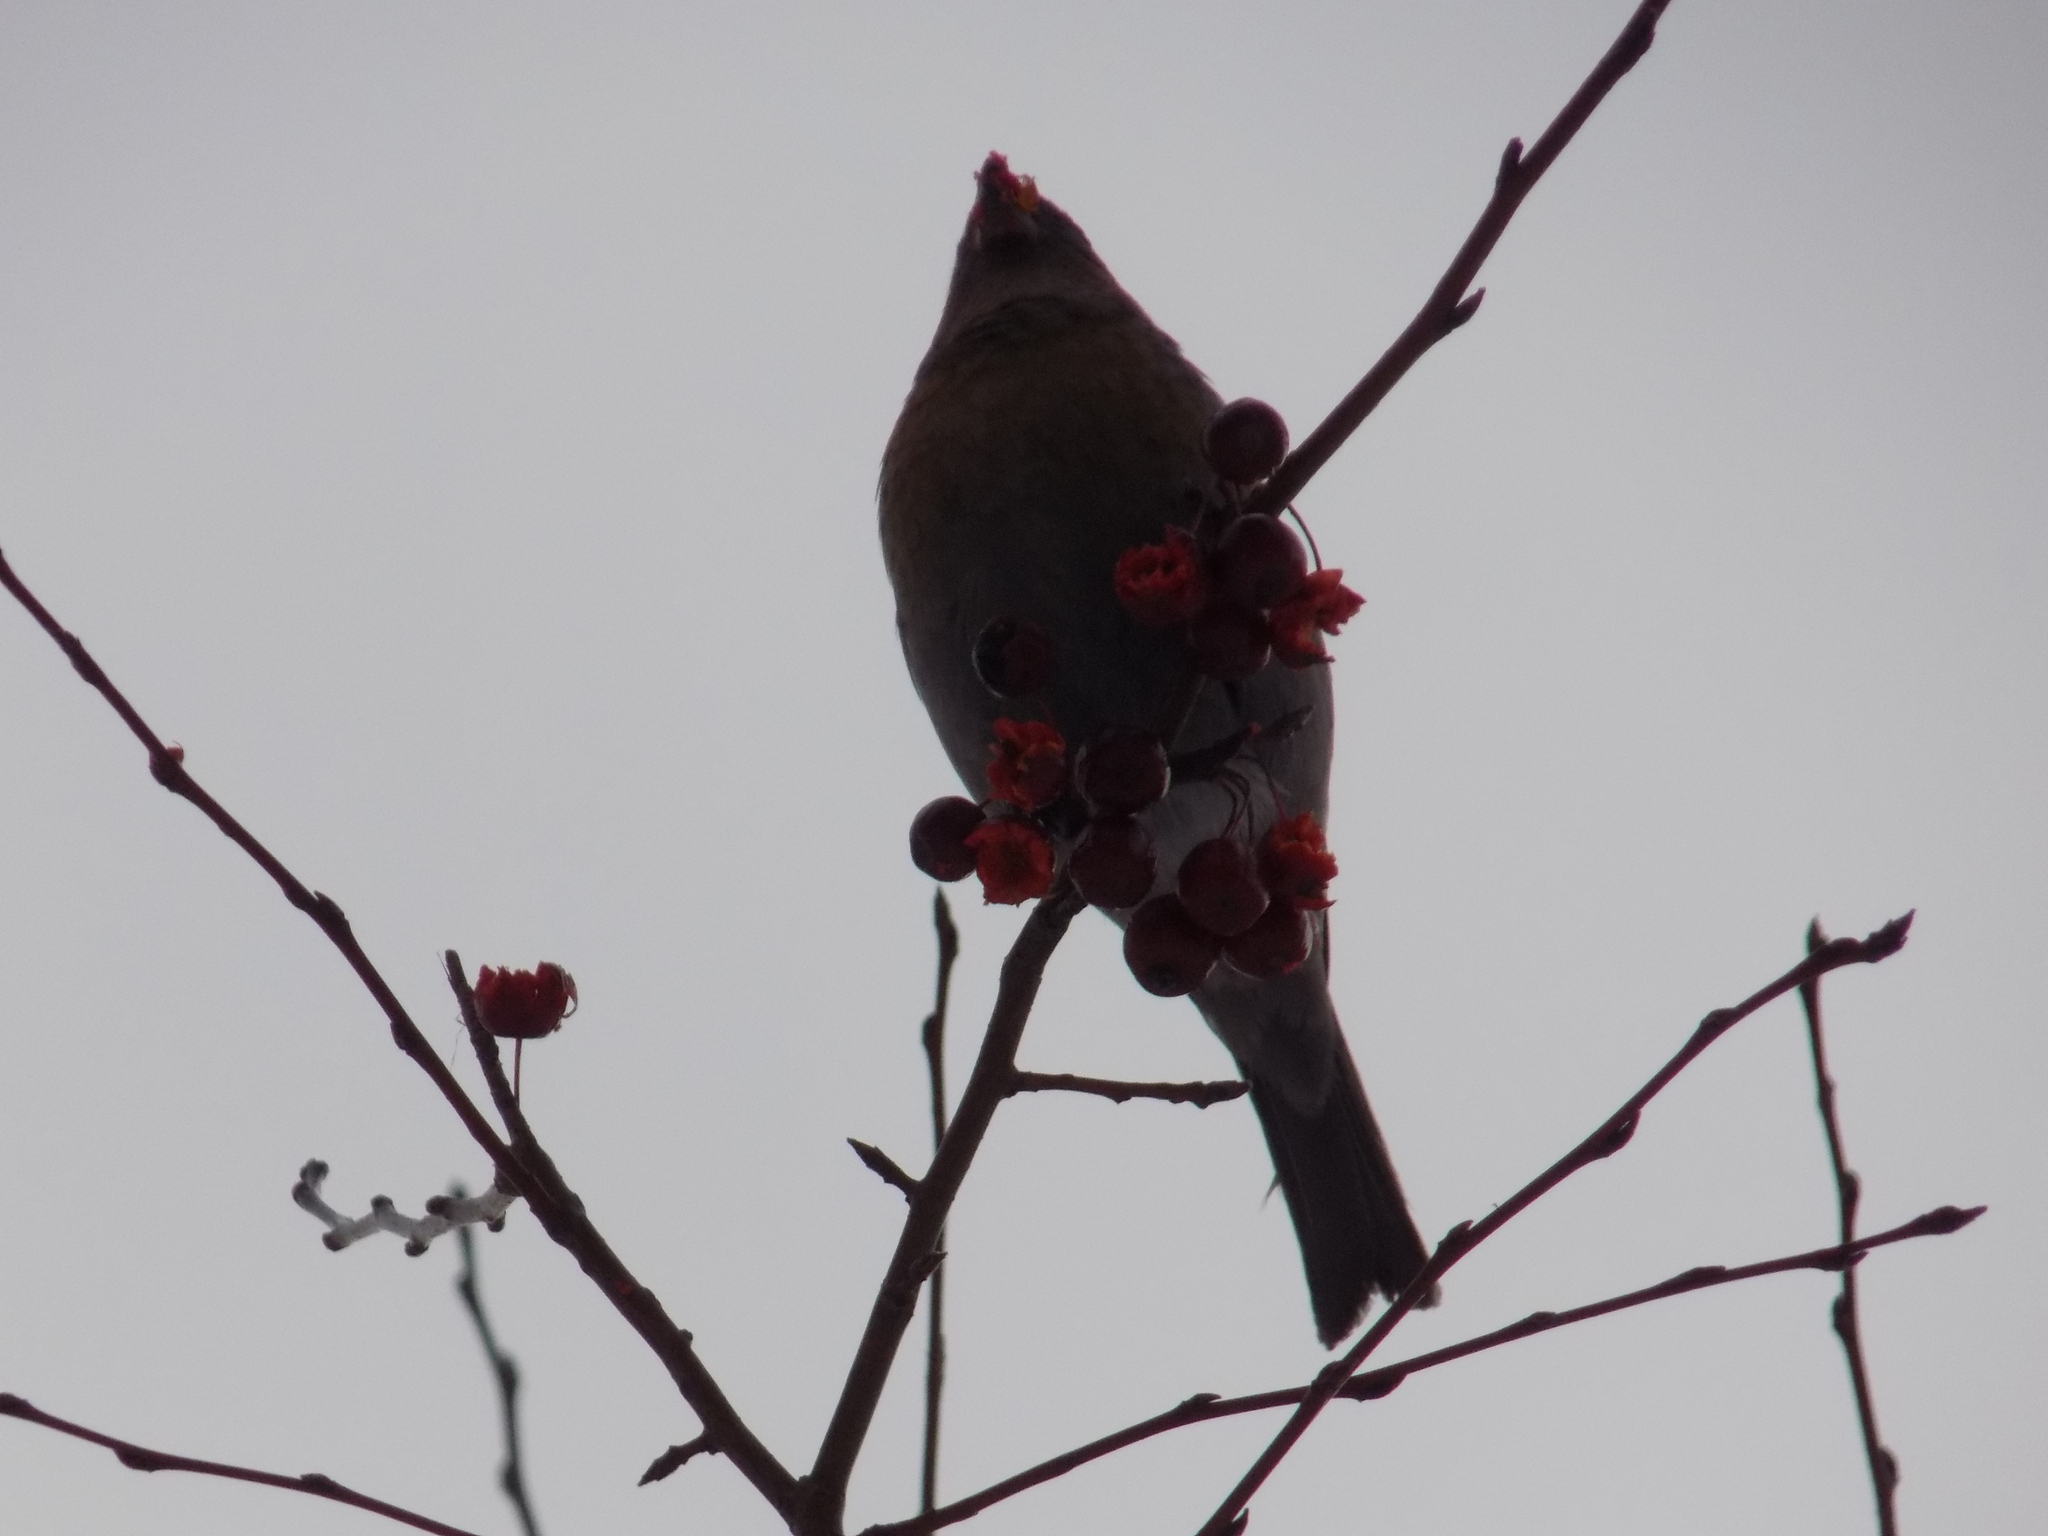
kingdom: Animalia
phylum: Chordata
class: Aves
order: Passeriformes
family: Fringillidae
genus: Pinicola
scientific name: Pinicola enucleator
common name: Pine grosbeak
